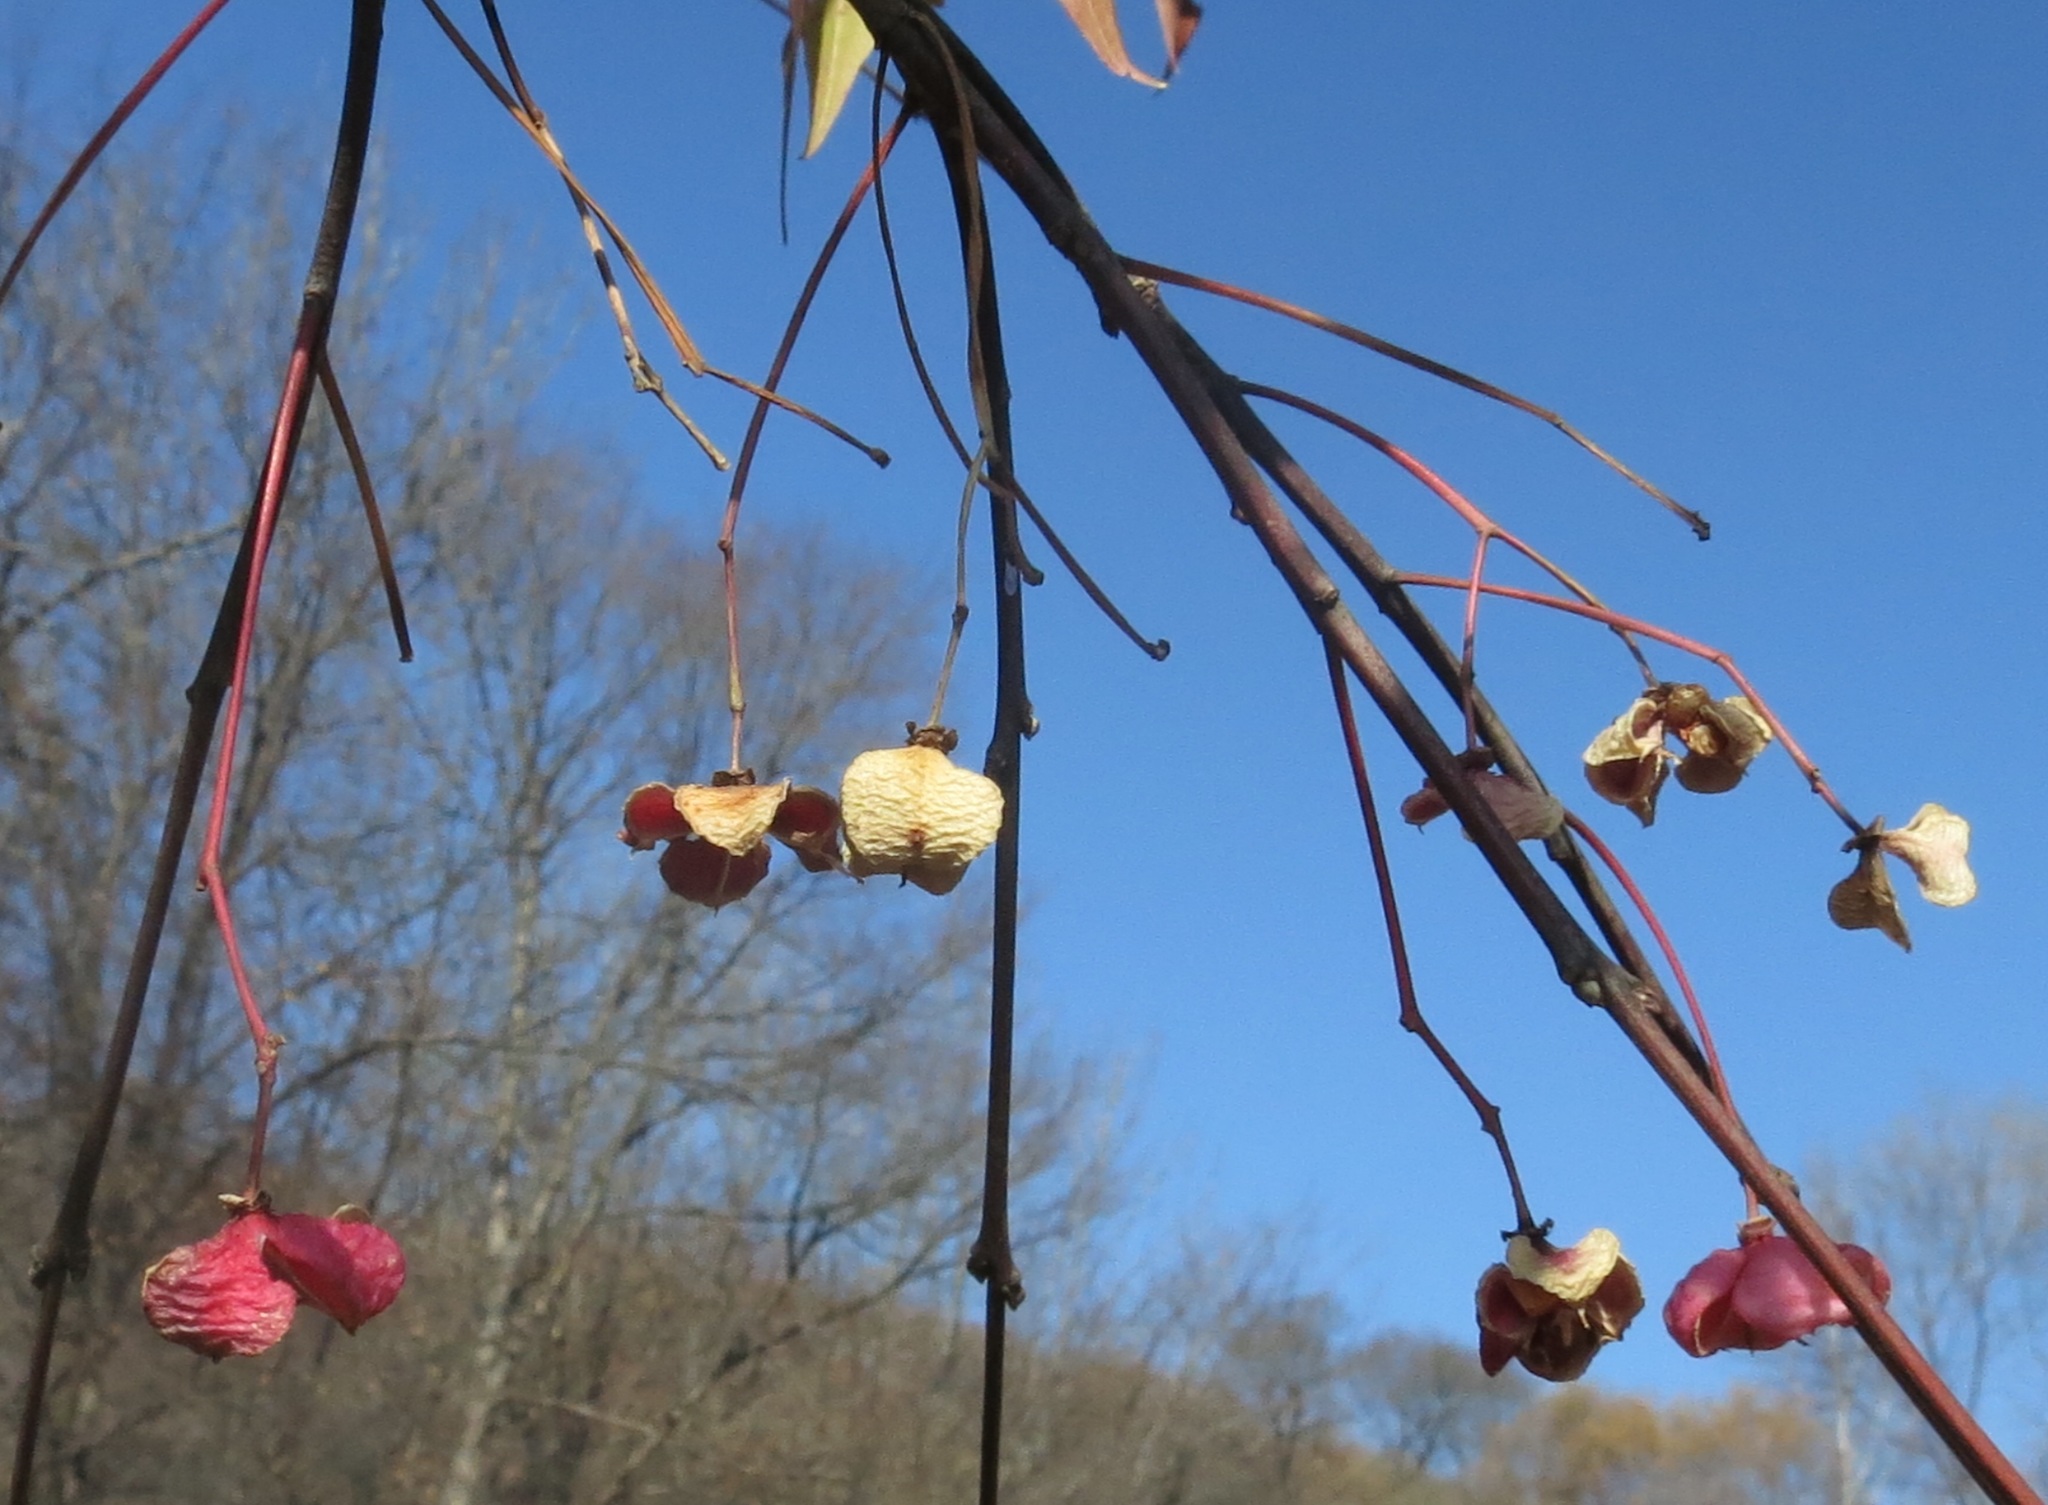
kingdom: Plantae
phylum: Tracheophyta
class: Magnoliopsida
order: Celastrales
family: Celastraceae
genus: Euonymus
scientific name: Euonymus maackii
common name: Hamilton's spindletree
